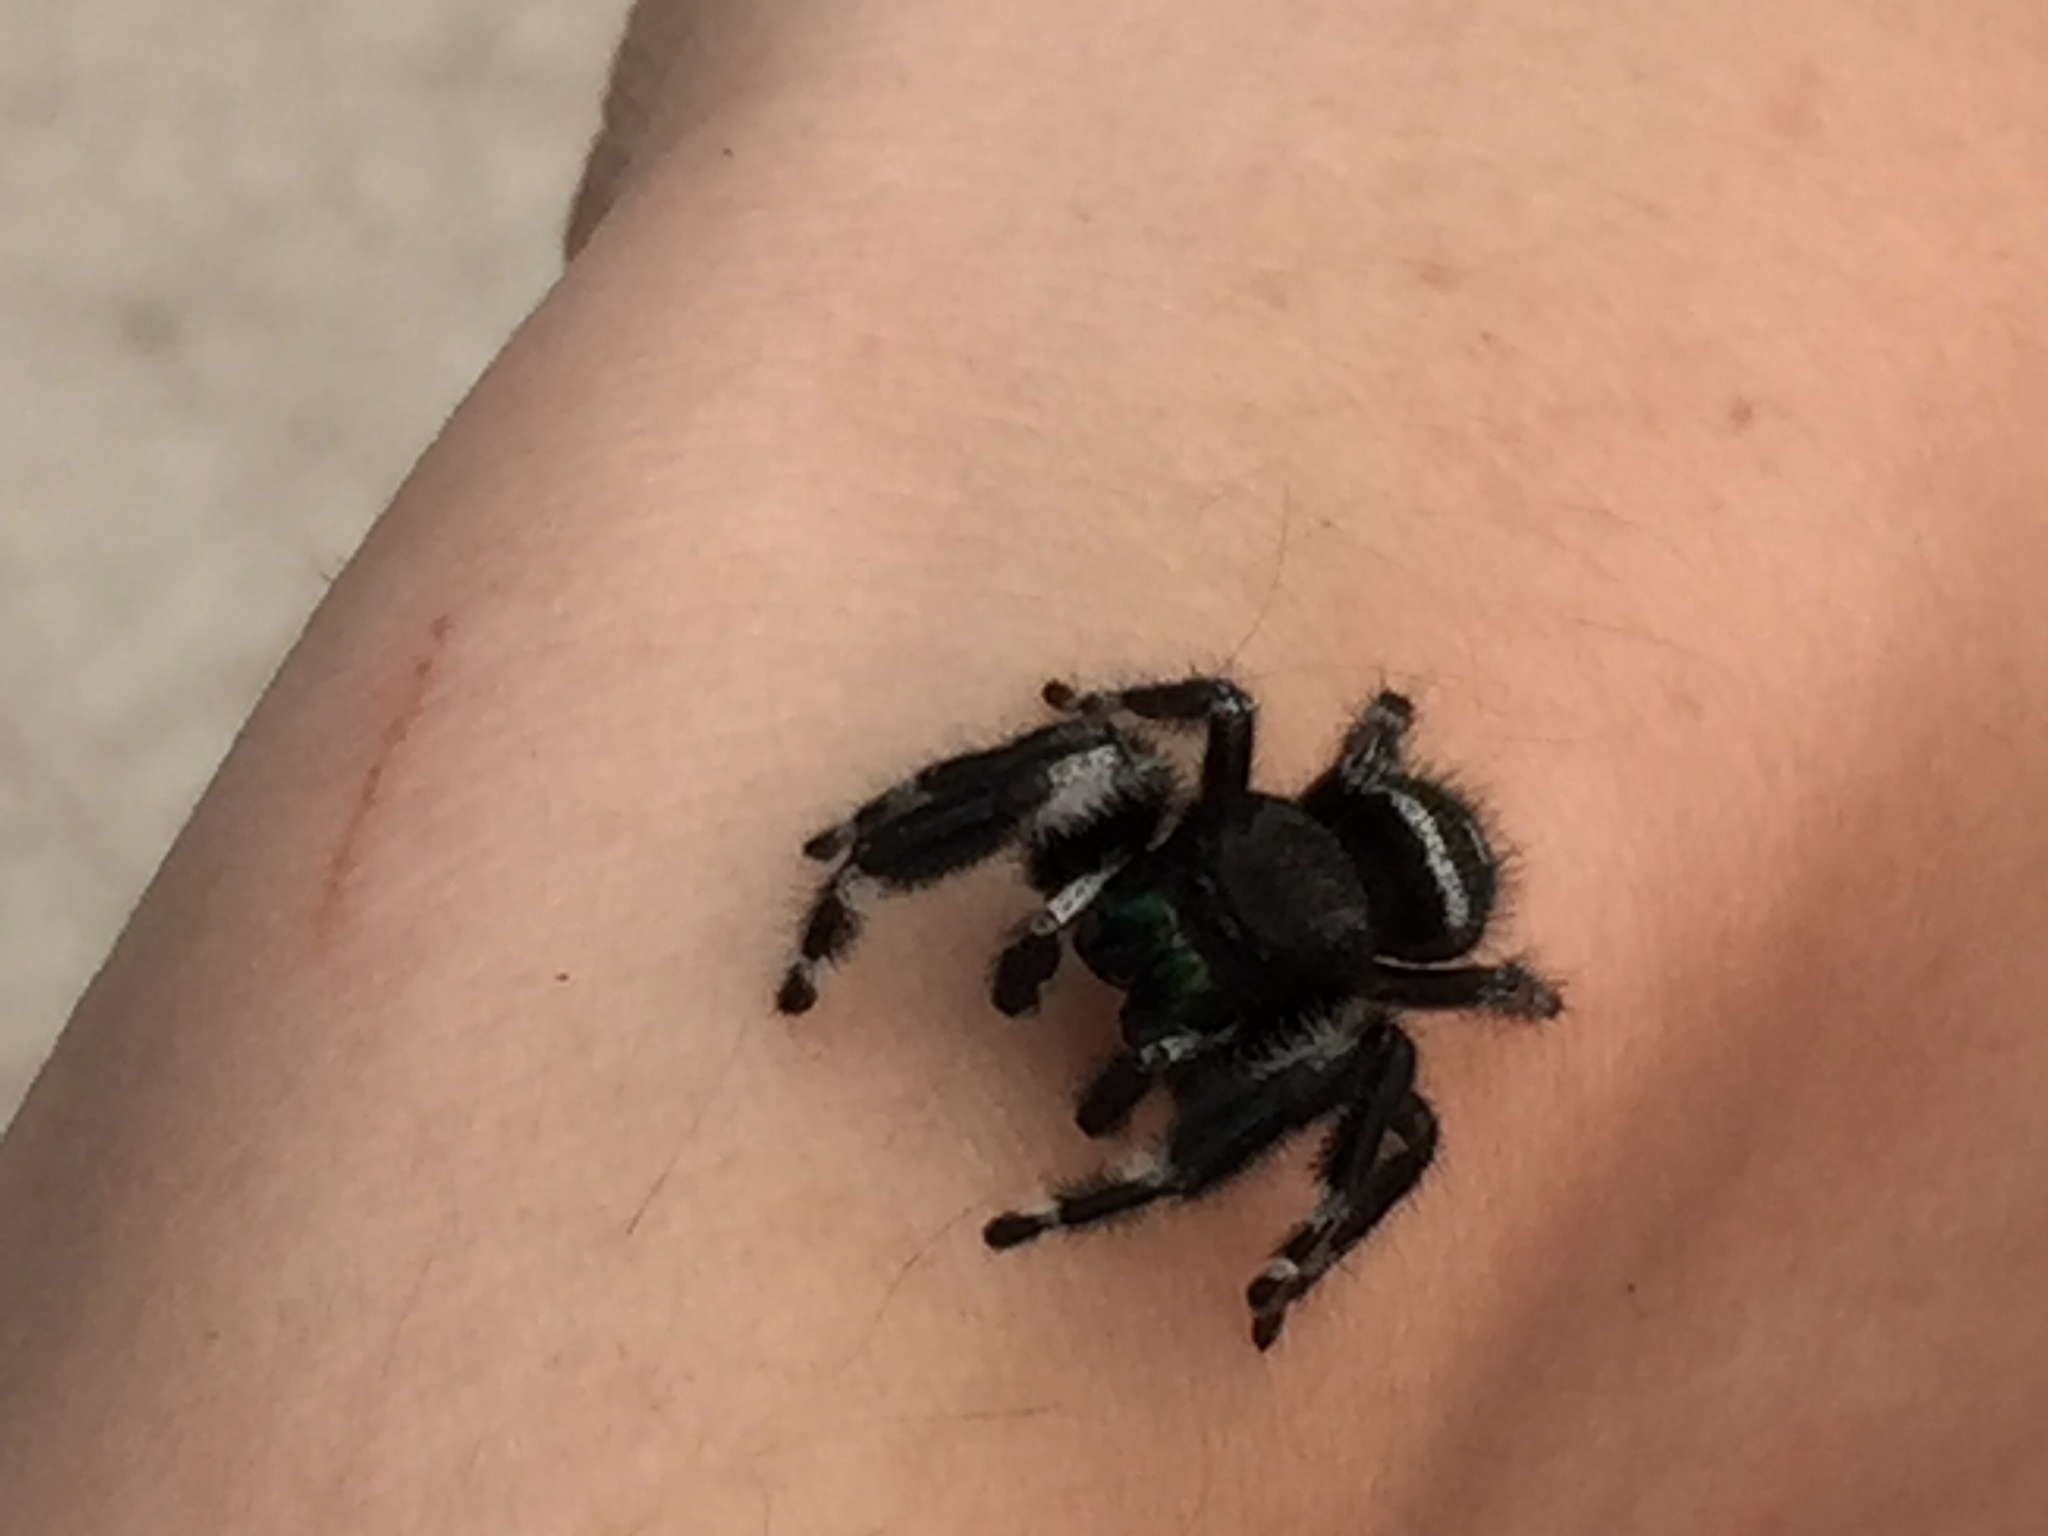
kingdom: Animalia
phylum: Arthropoda
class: Arachnida
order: Araneae
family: Salticidae
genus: Phidippus
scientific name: Phidippus audax
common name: Bold jumper
